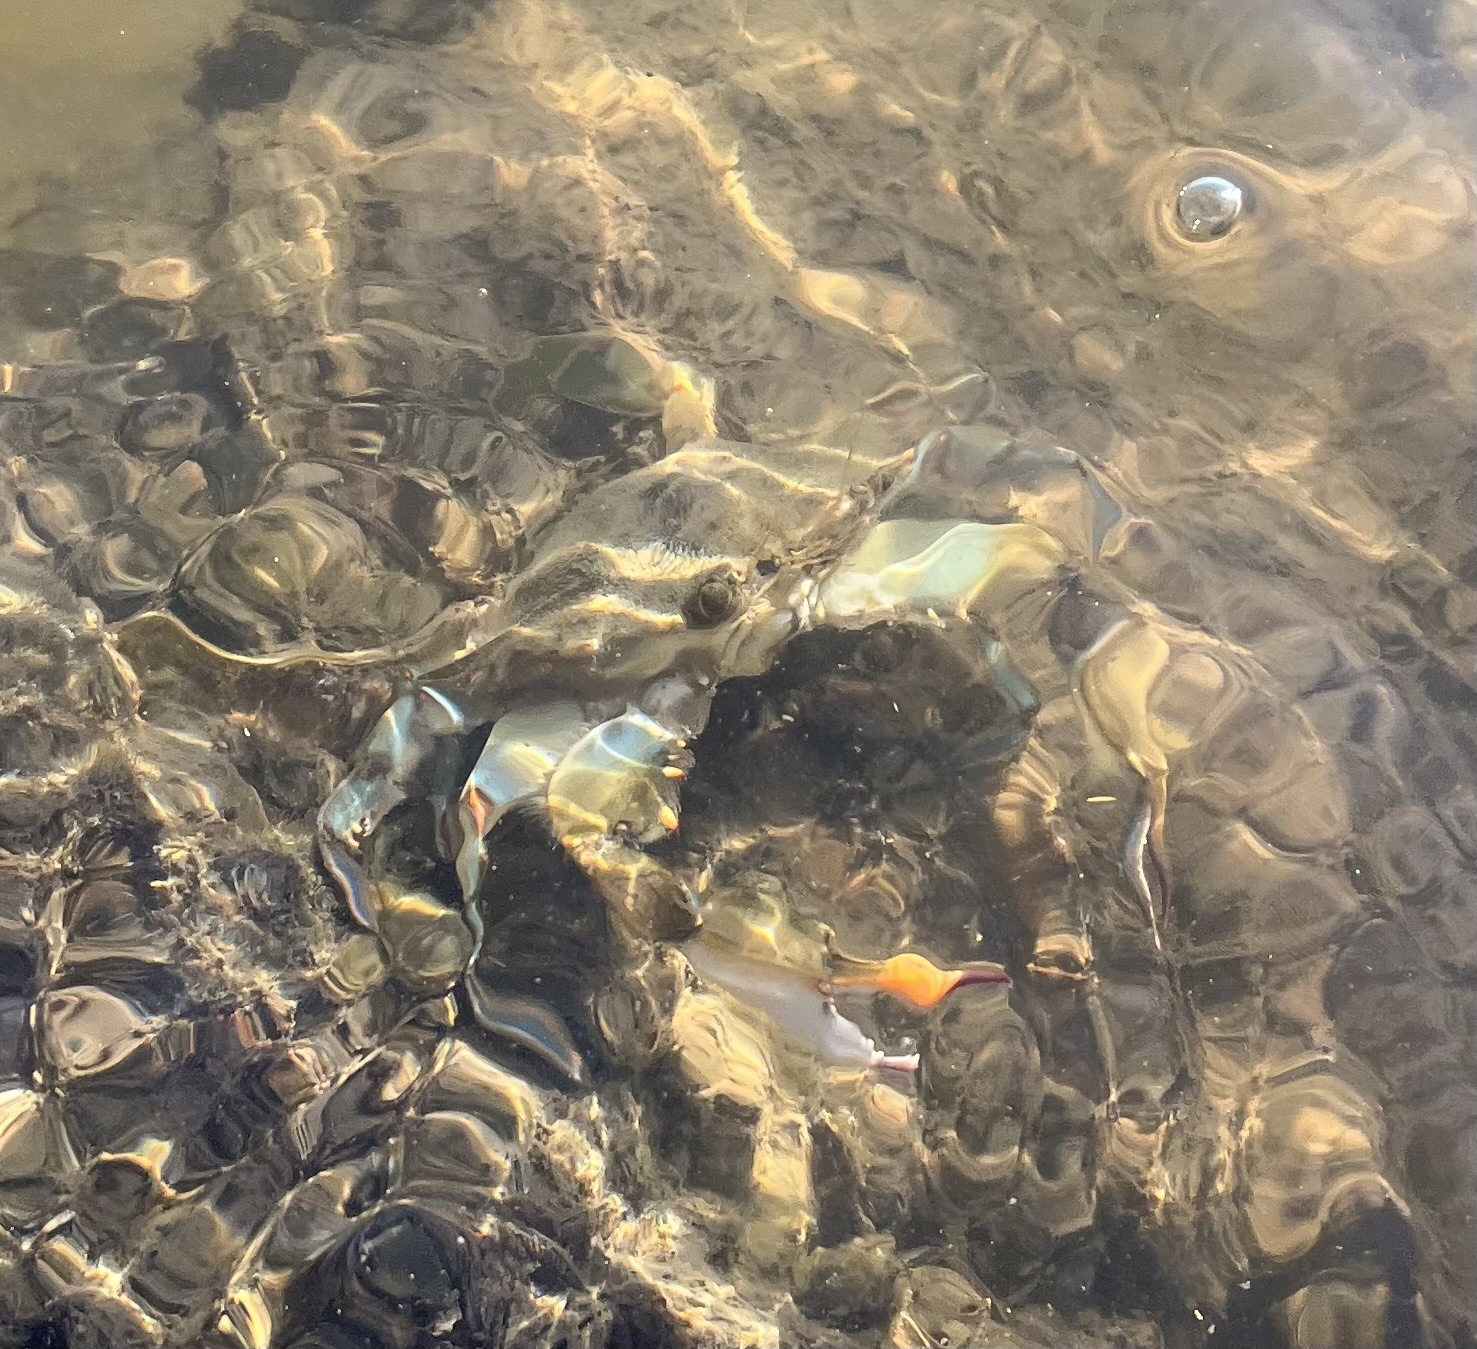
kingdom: Animalia
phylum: Arthropoda
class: Malacostraca
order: Decapoda
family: Portunidae
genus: Callinectes
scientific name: Callinectes sapidus
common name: Blue crab
